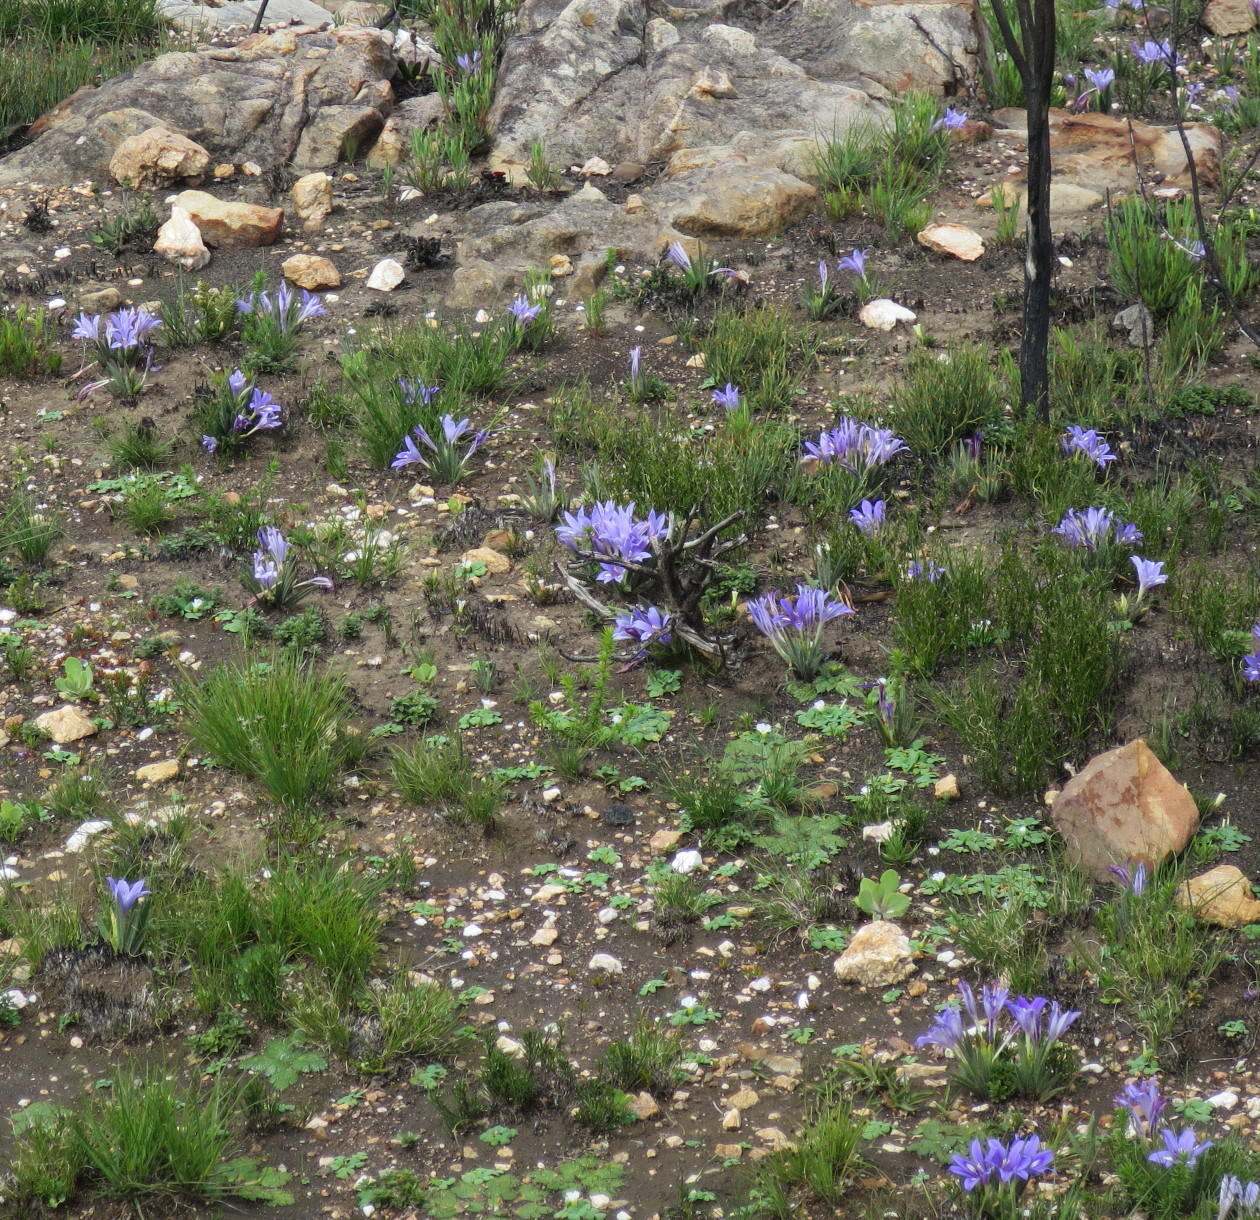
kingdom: Plantae
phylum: Tracheophyta
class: Liliopsida
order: Asparagales
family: Iridaceae
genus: Babiana
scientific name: Babiana sambucina
